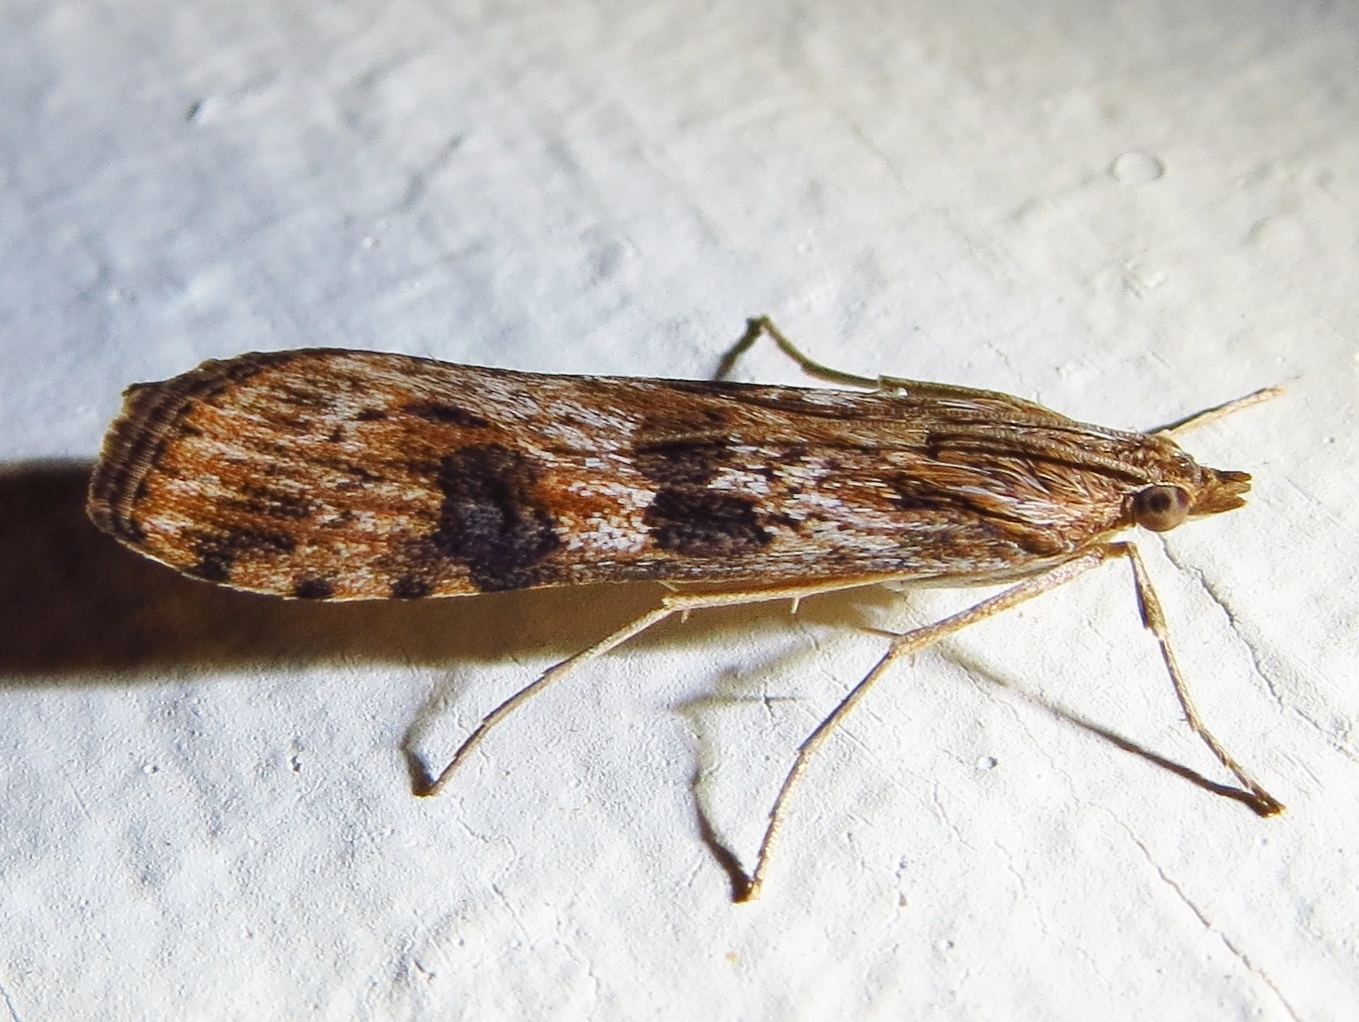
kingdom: Animalia
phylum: Arthropoda
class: Insecta
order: Lepidoptera
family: Crambidae
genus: Nomophila
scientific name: Nomophila nearctica
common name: American rush veneer
